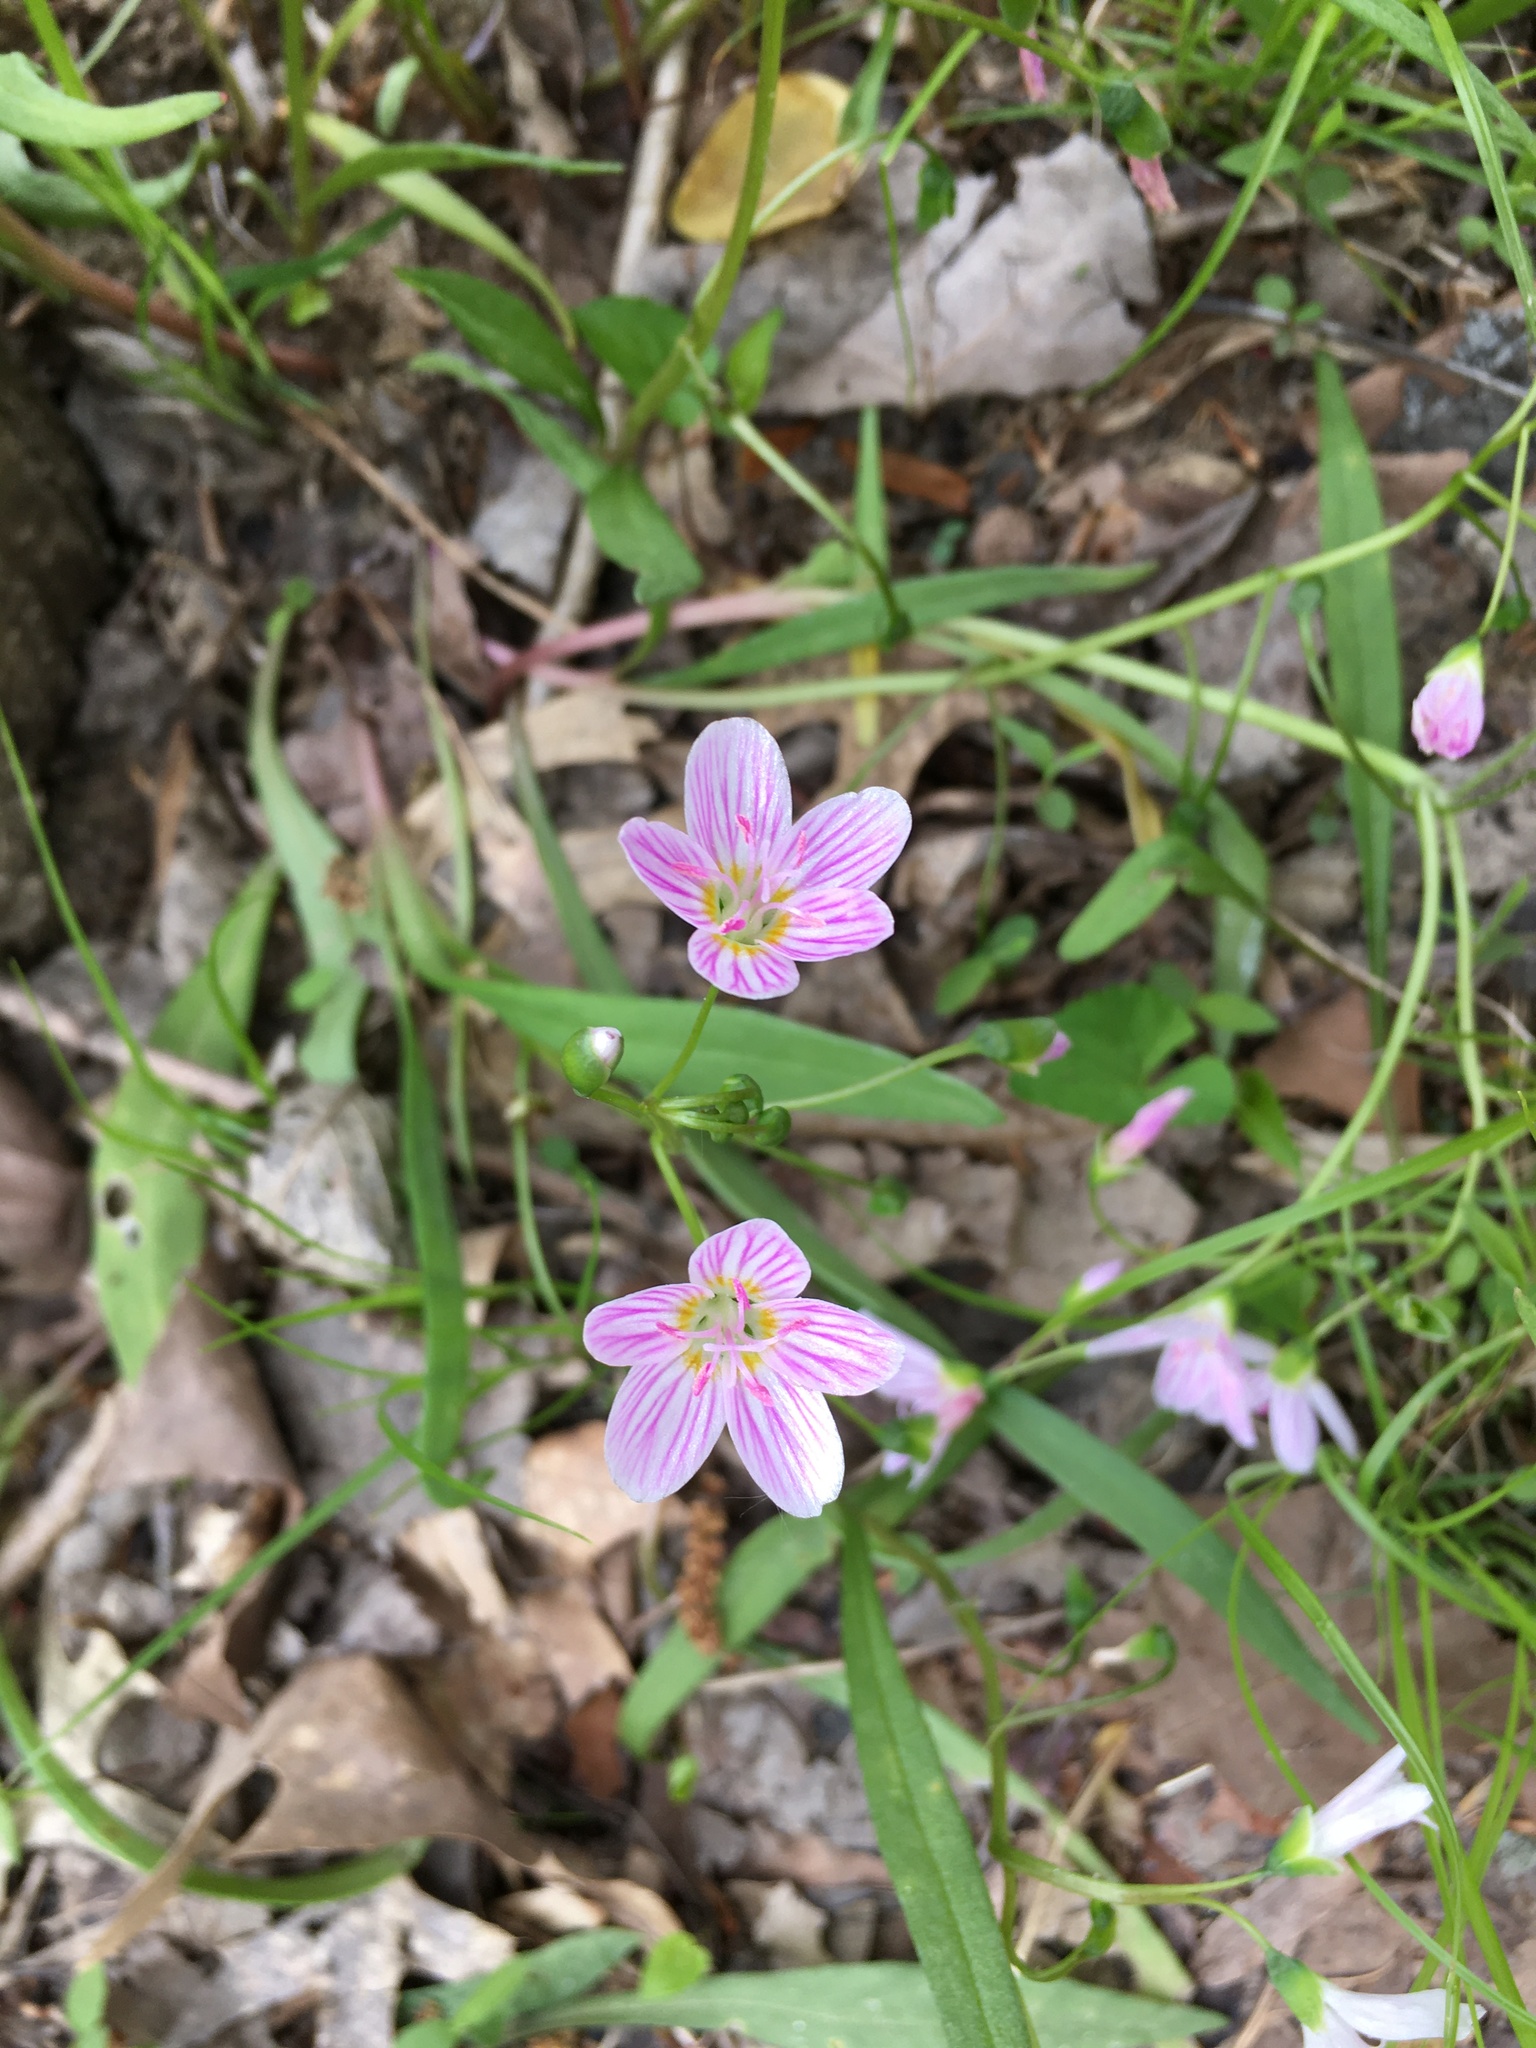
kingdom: Plantae
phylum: Tracheophyta
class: Magnoliopsida
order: Caryophyllales
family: Montiaceae
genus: Claytonia
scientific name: Claytonia virginica
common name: Virginia springbeauty
